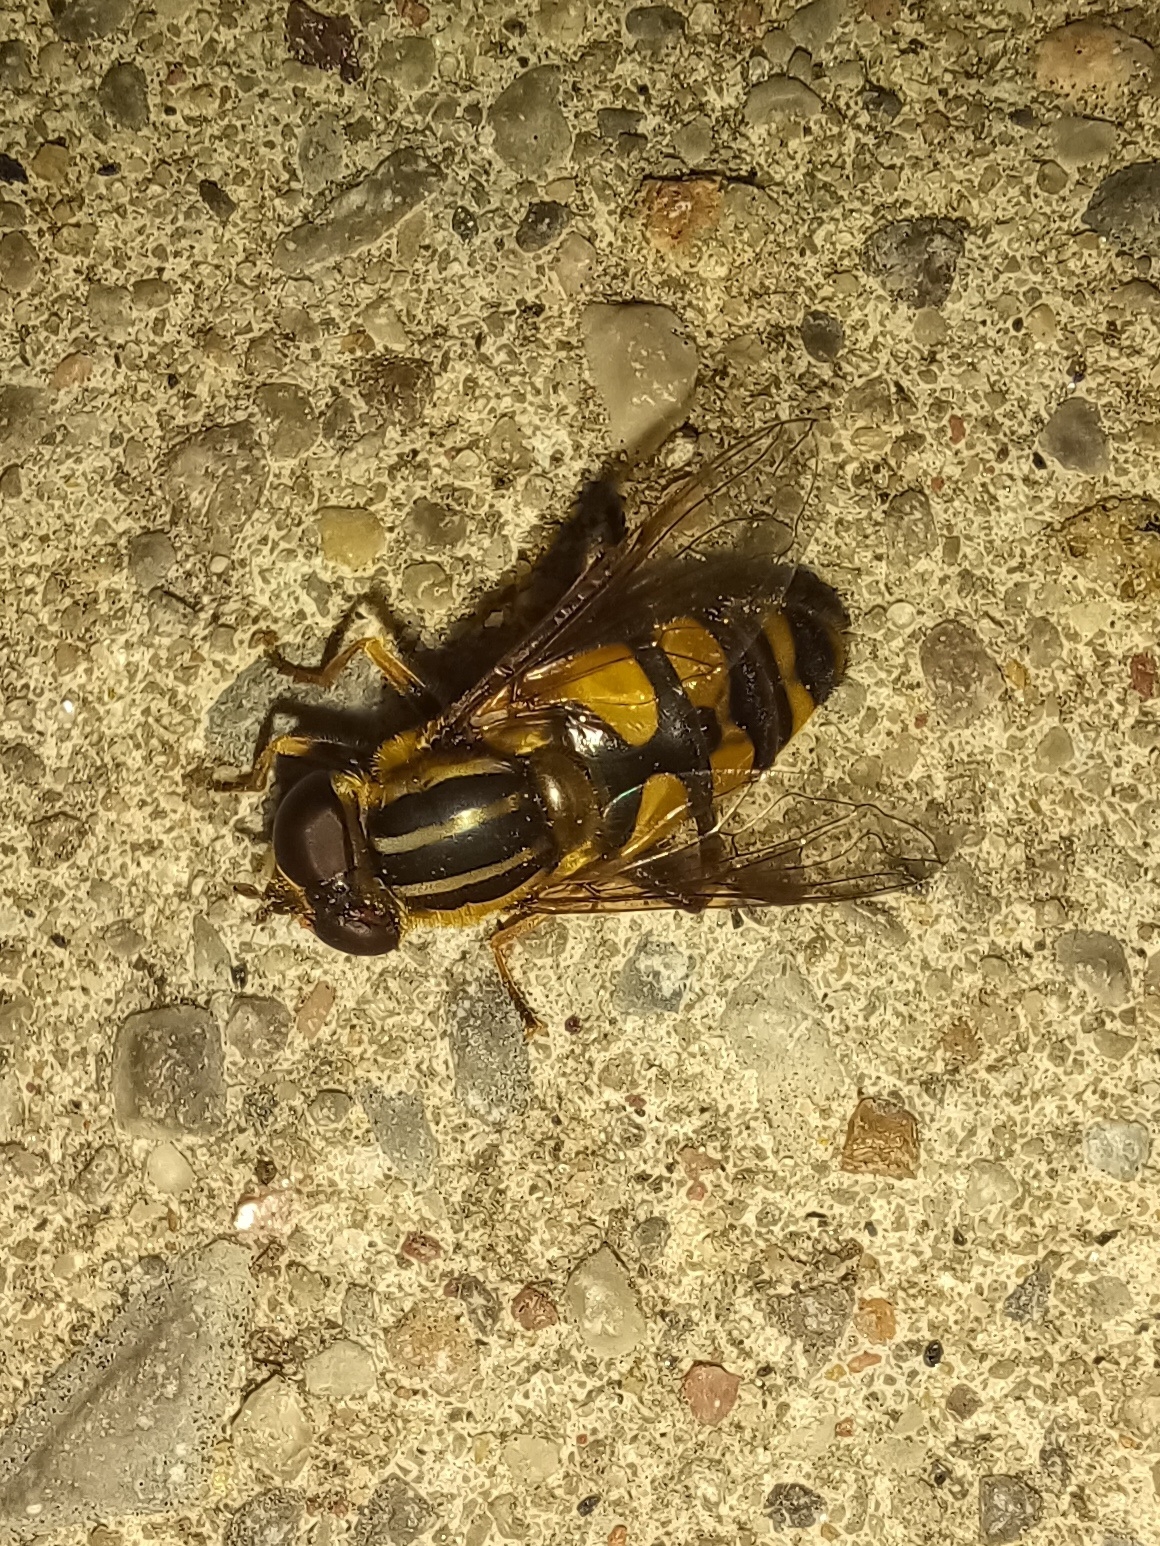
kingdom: Animalia
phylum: Arthropoda
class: Insecta
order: Diptera
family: Syrphidae
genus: Helophilus
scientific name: Helophilus fasciatus
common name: Narrow-headed marsh fly
